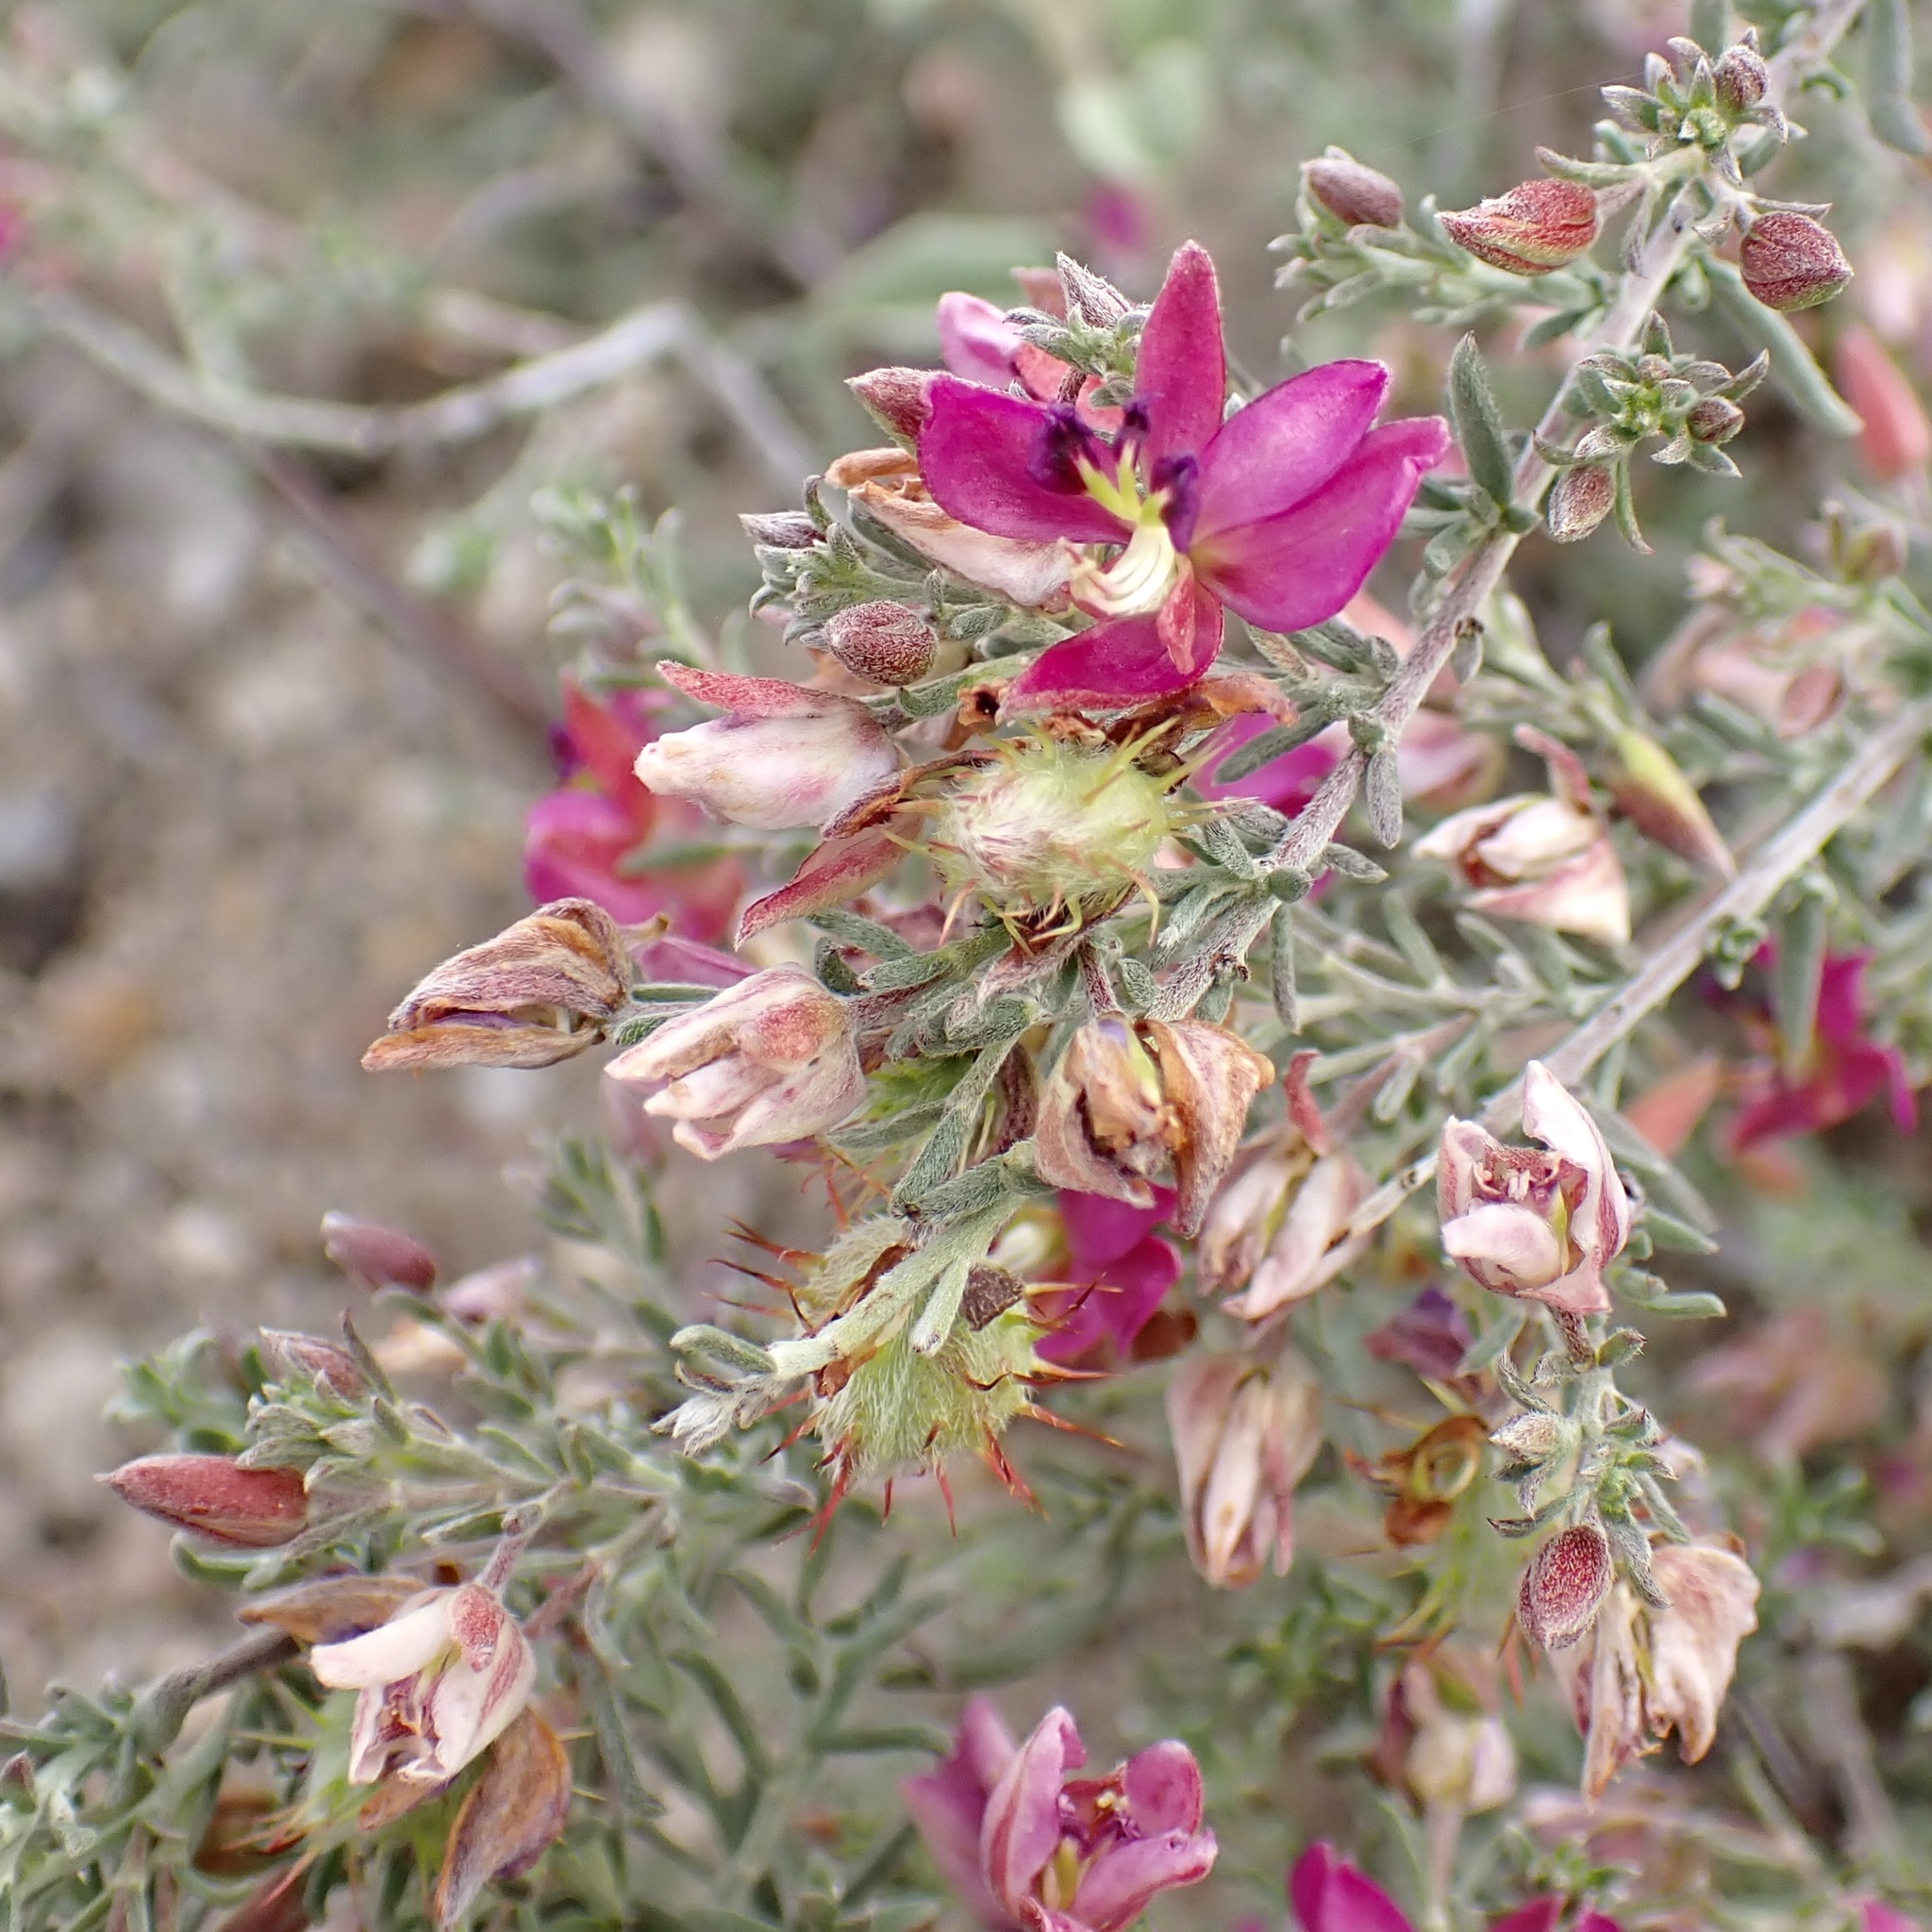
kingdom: Plantae
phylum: Tracheophyta
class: Magnoliopsida
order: Zygophyllales
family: Krameriaceae
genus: Krameria
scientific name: Krameria erecta
